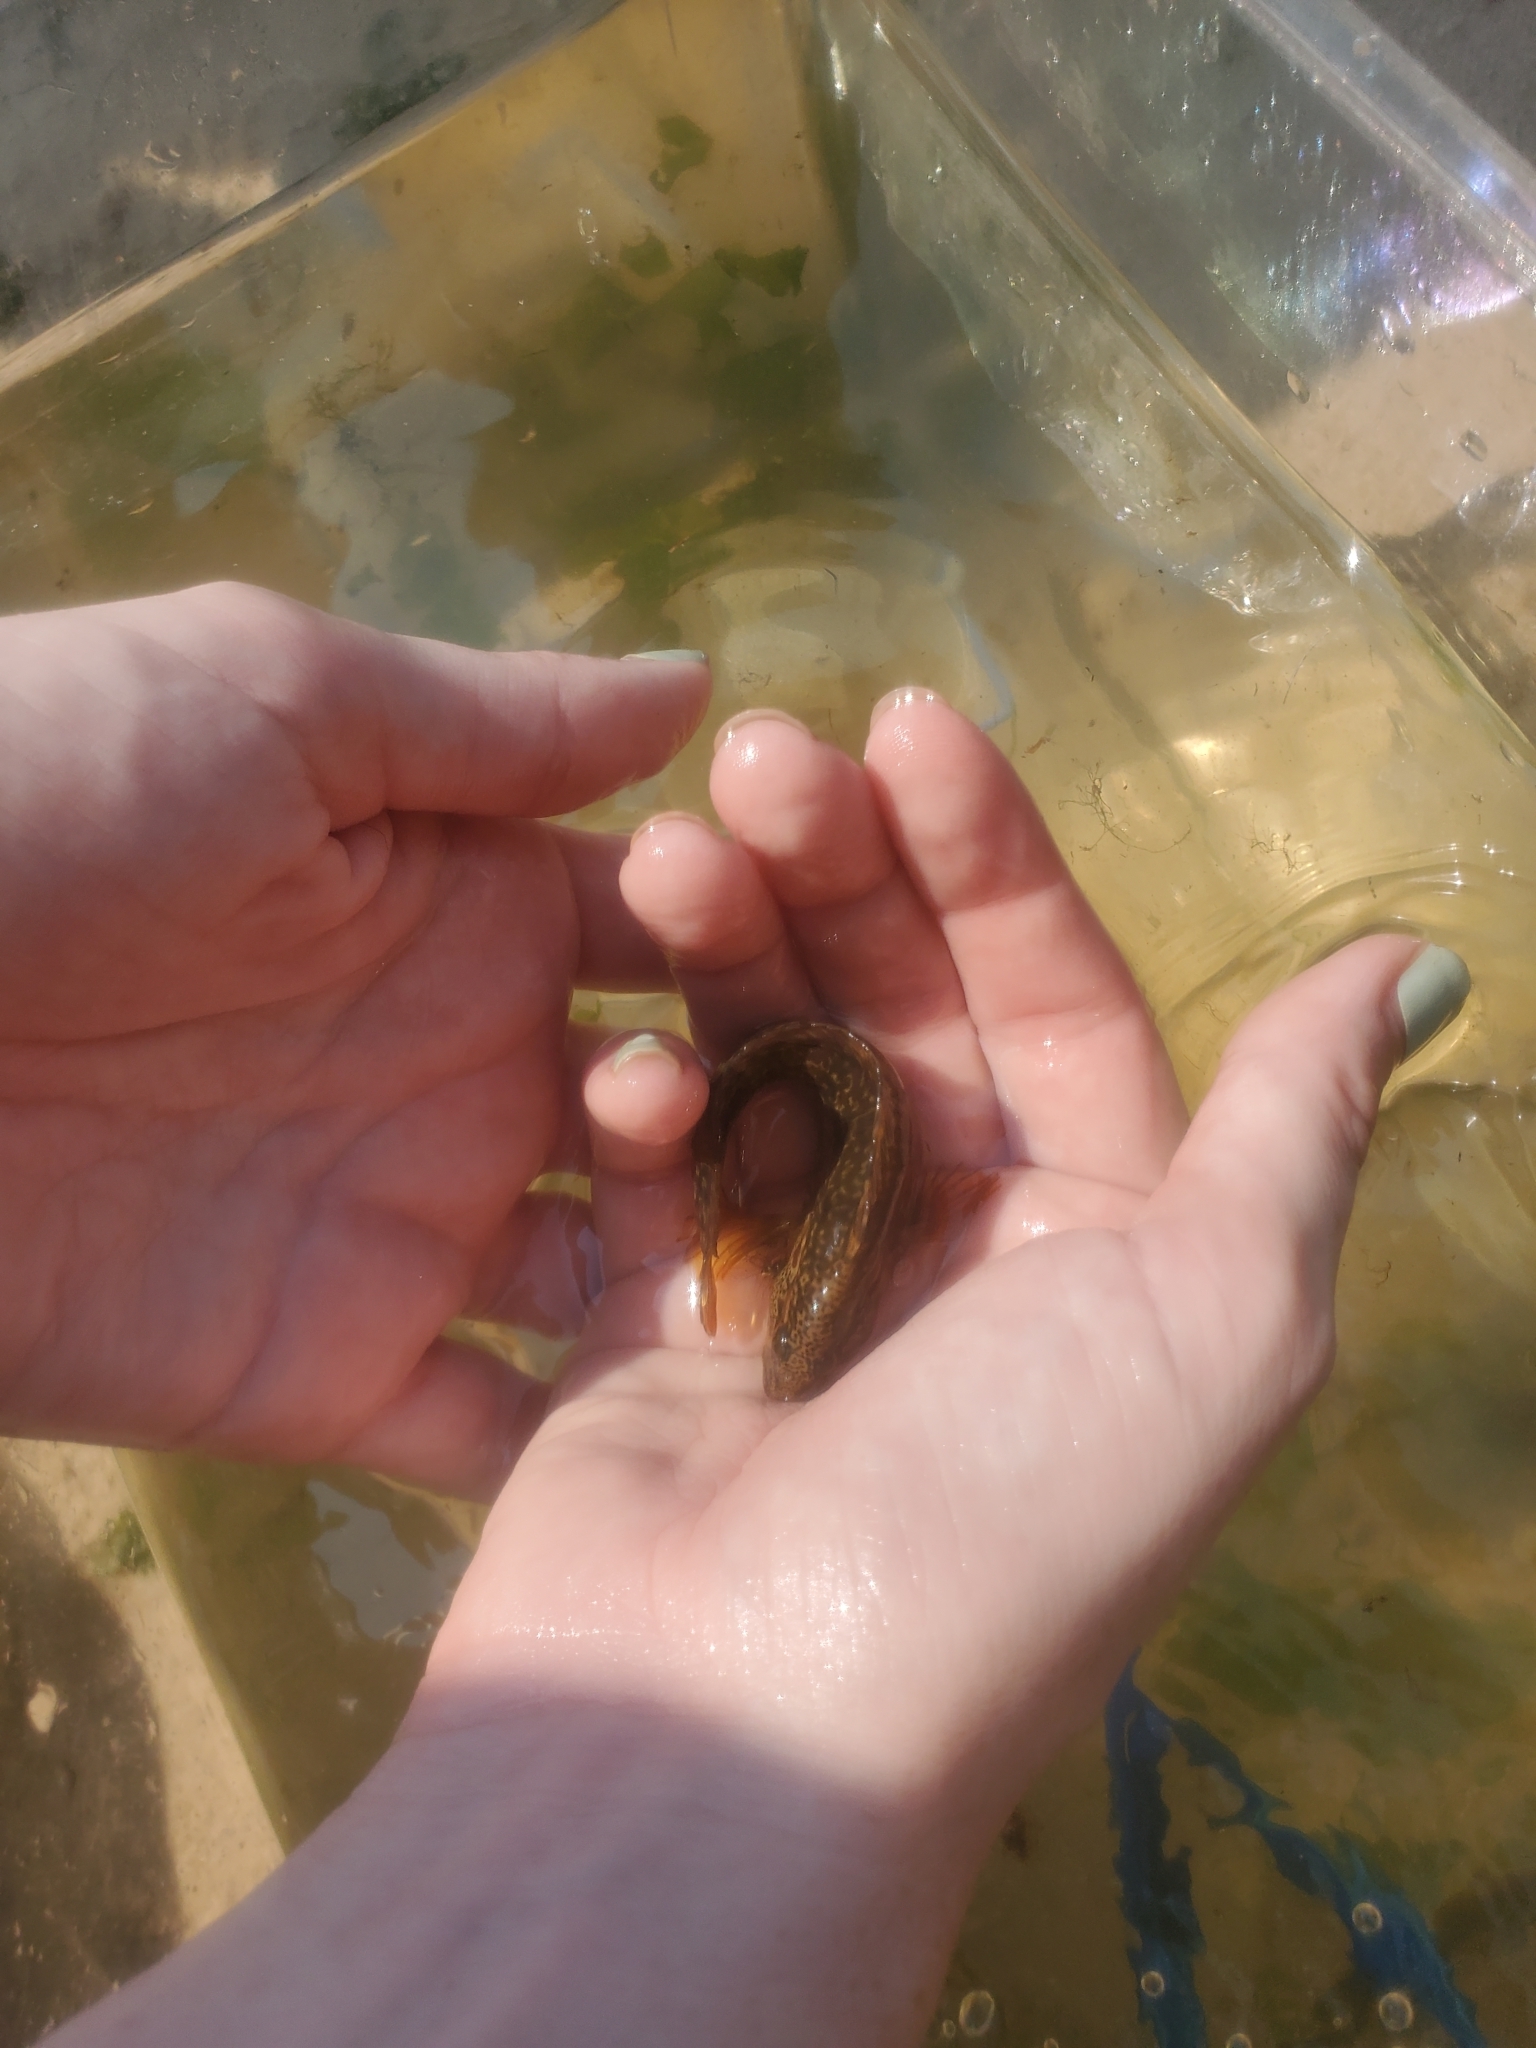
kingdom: Animalia
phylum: Chordata
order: Perciformes
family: Blenniidae
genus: Chasmodes
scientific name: Chasmodes bosquianus
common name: Striped blenny
